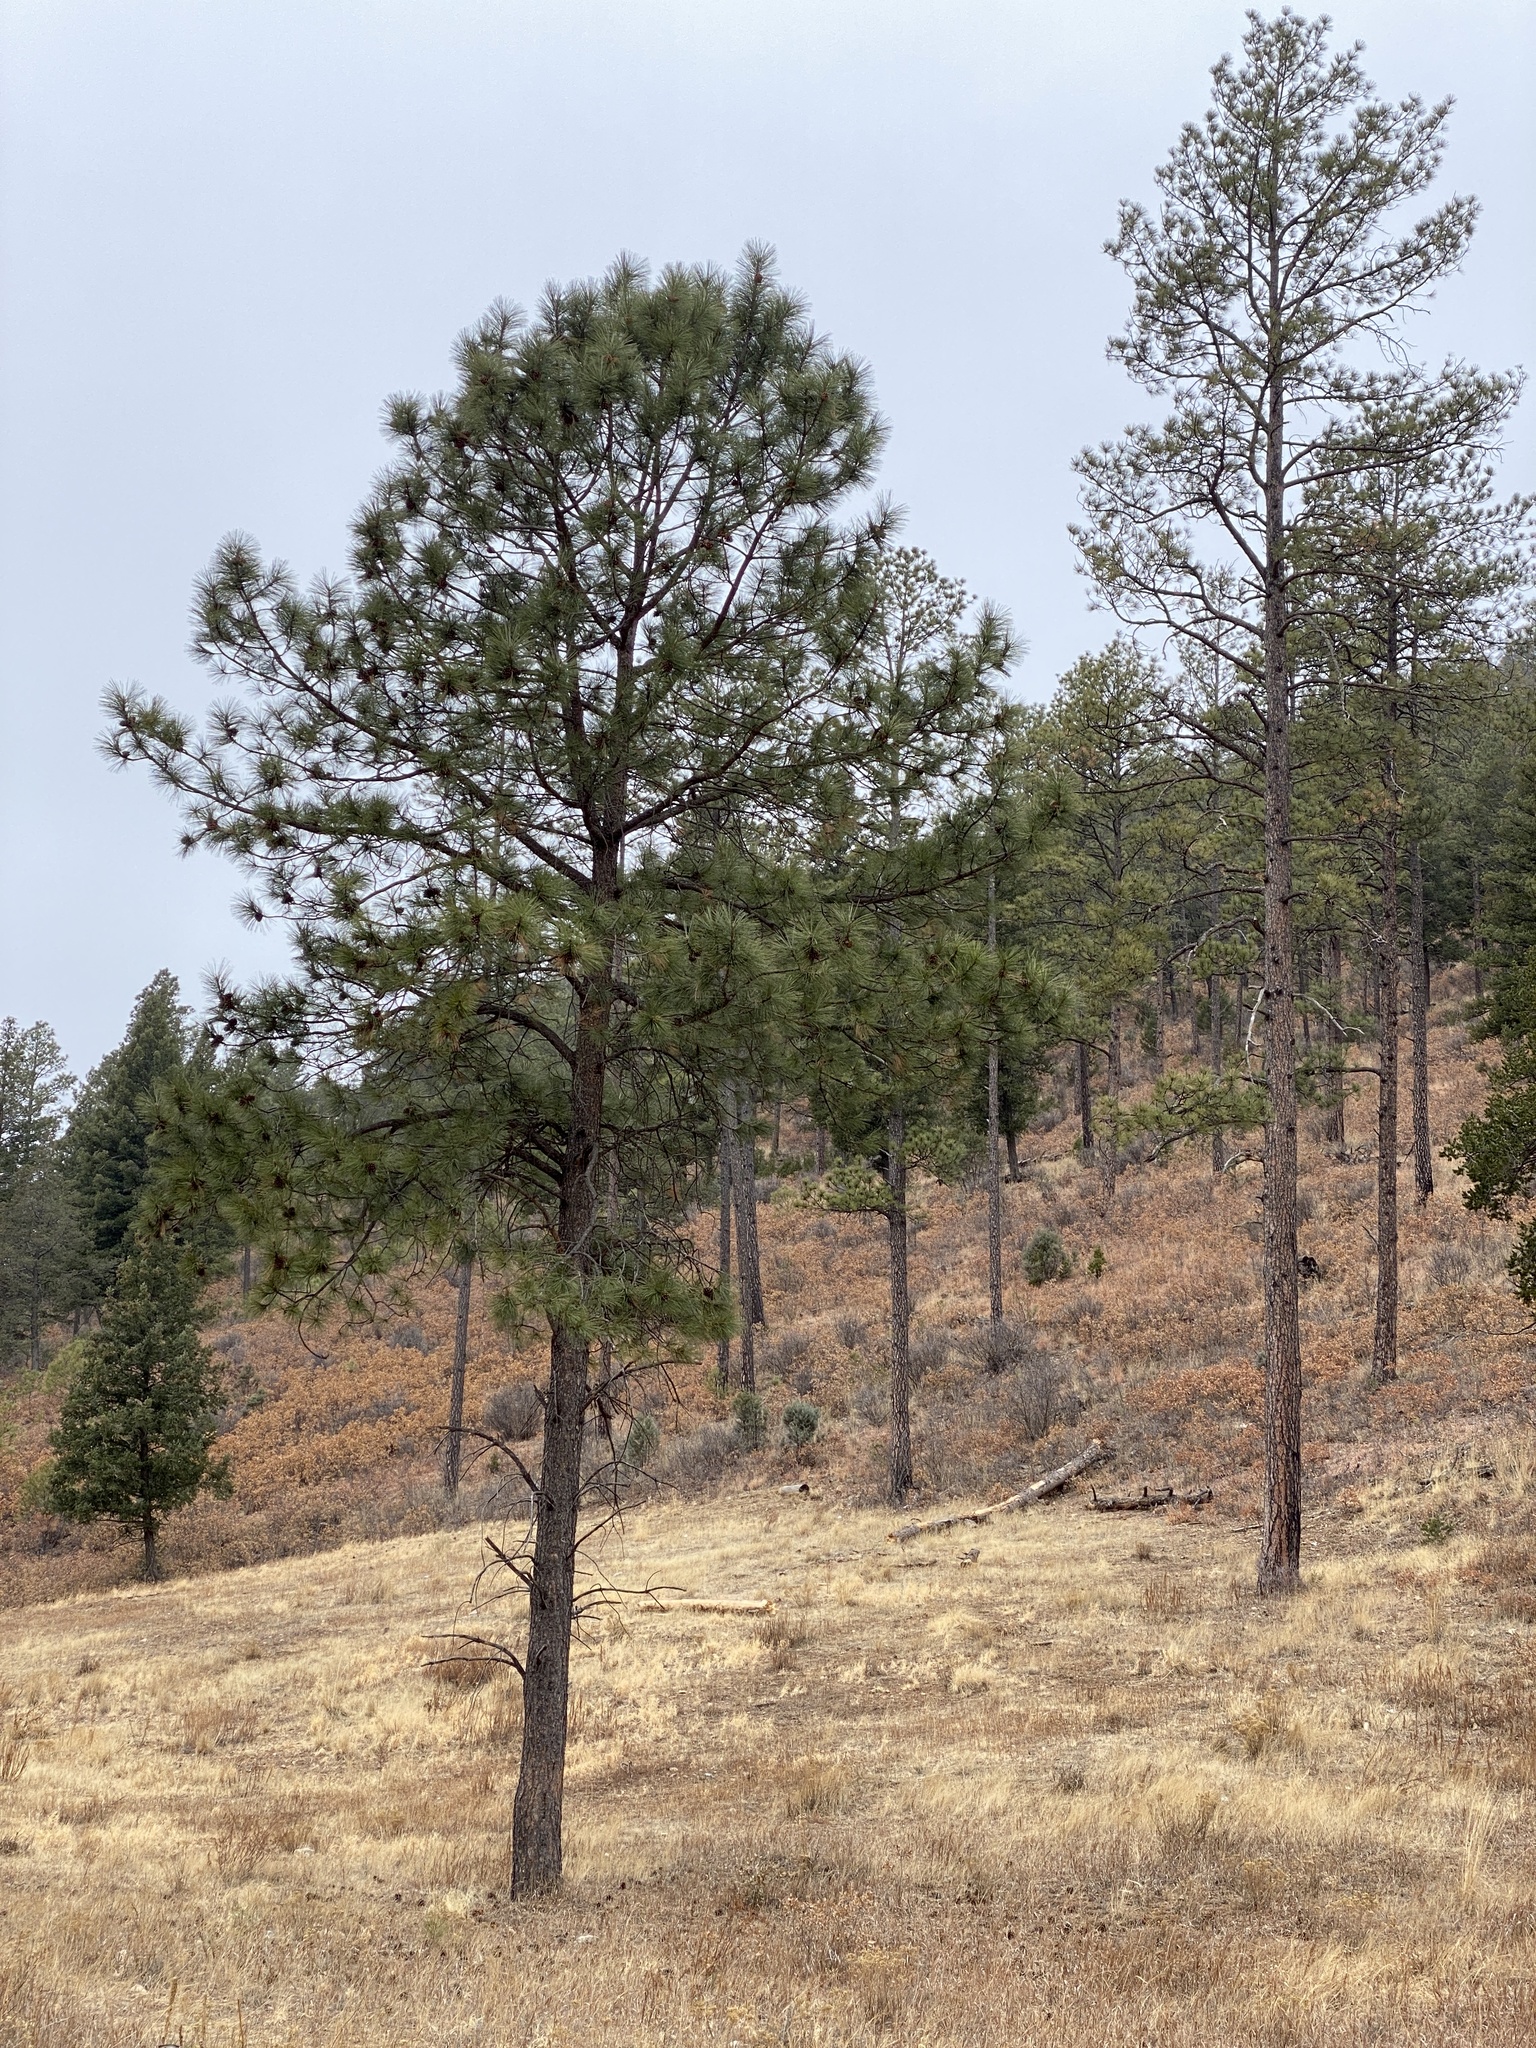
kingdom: Plantae
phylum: Tracheophyta
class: Pinopsida
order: Pinales
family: Pinaceae
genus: Pinus
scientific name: Pinus ponderosa
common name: Western yellow-pine
